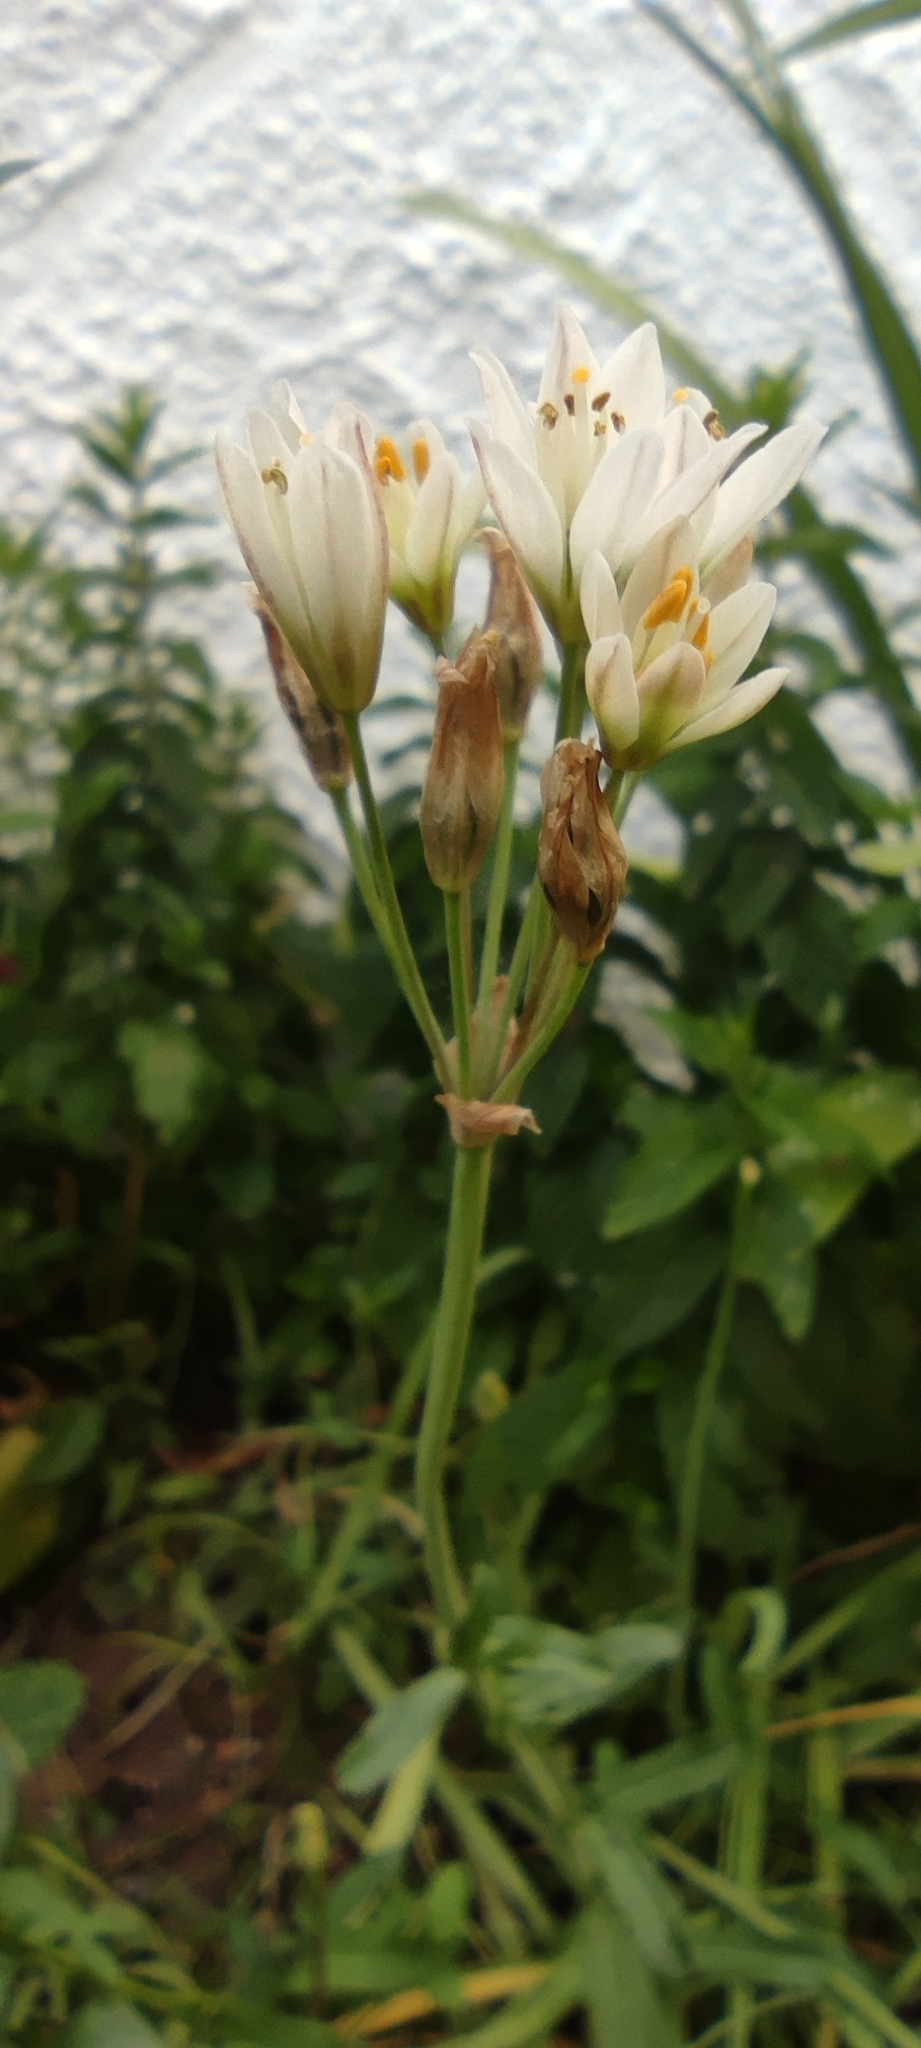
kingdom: Plantae
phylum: Tracheophyta
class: Liliopsida
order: Asparagales
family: Amaryllidaceae
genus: Nothoscordum
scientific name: Nothoscordum gracile
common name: Slender false garlic
